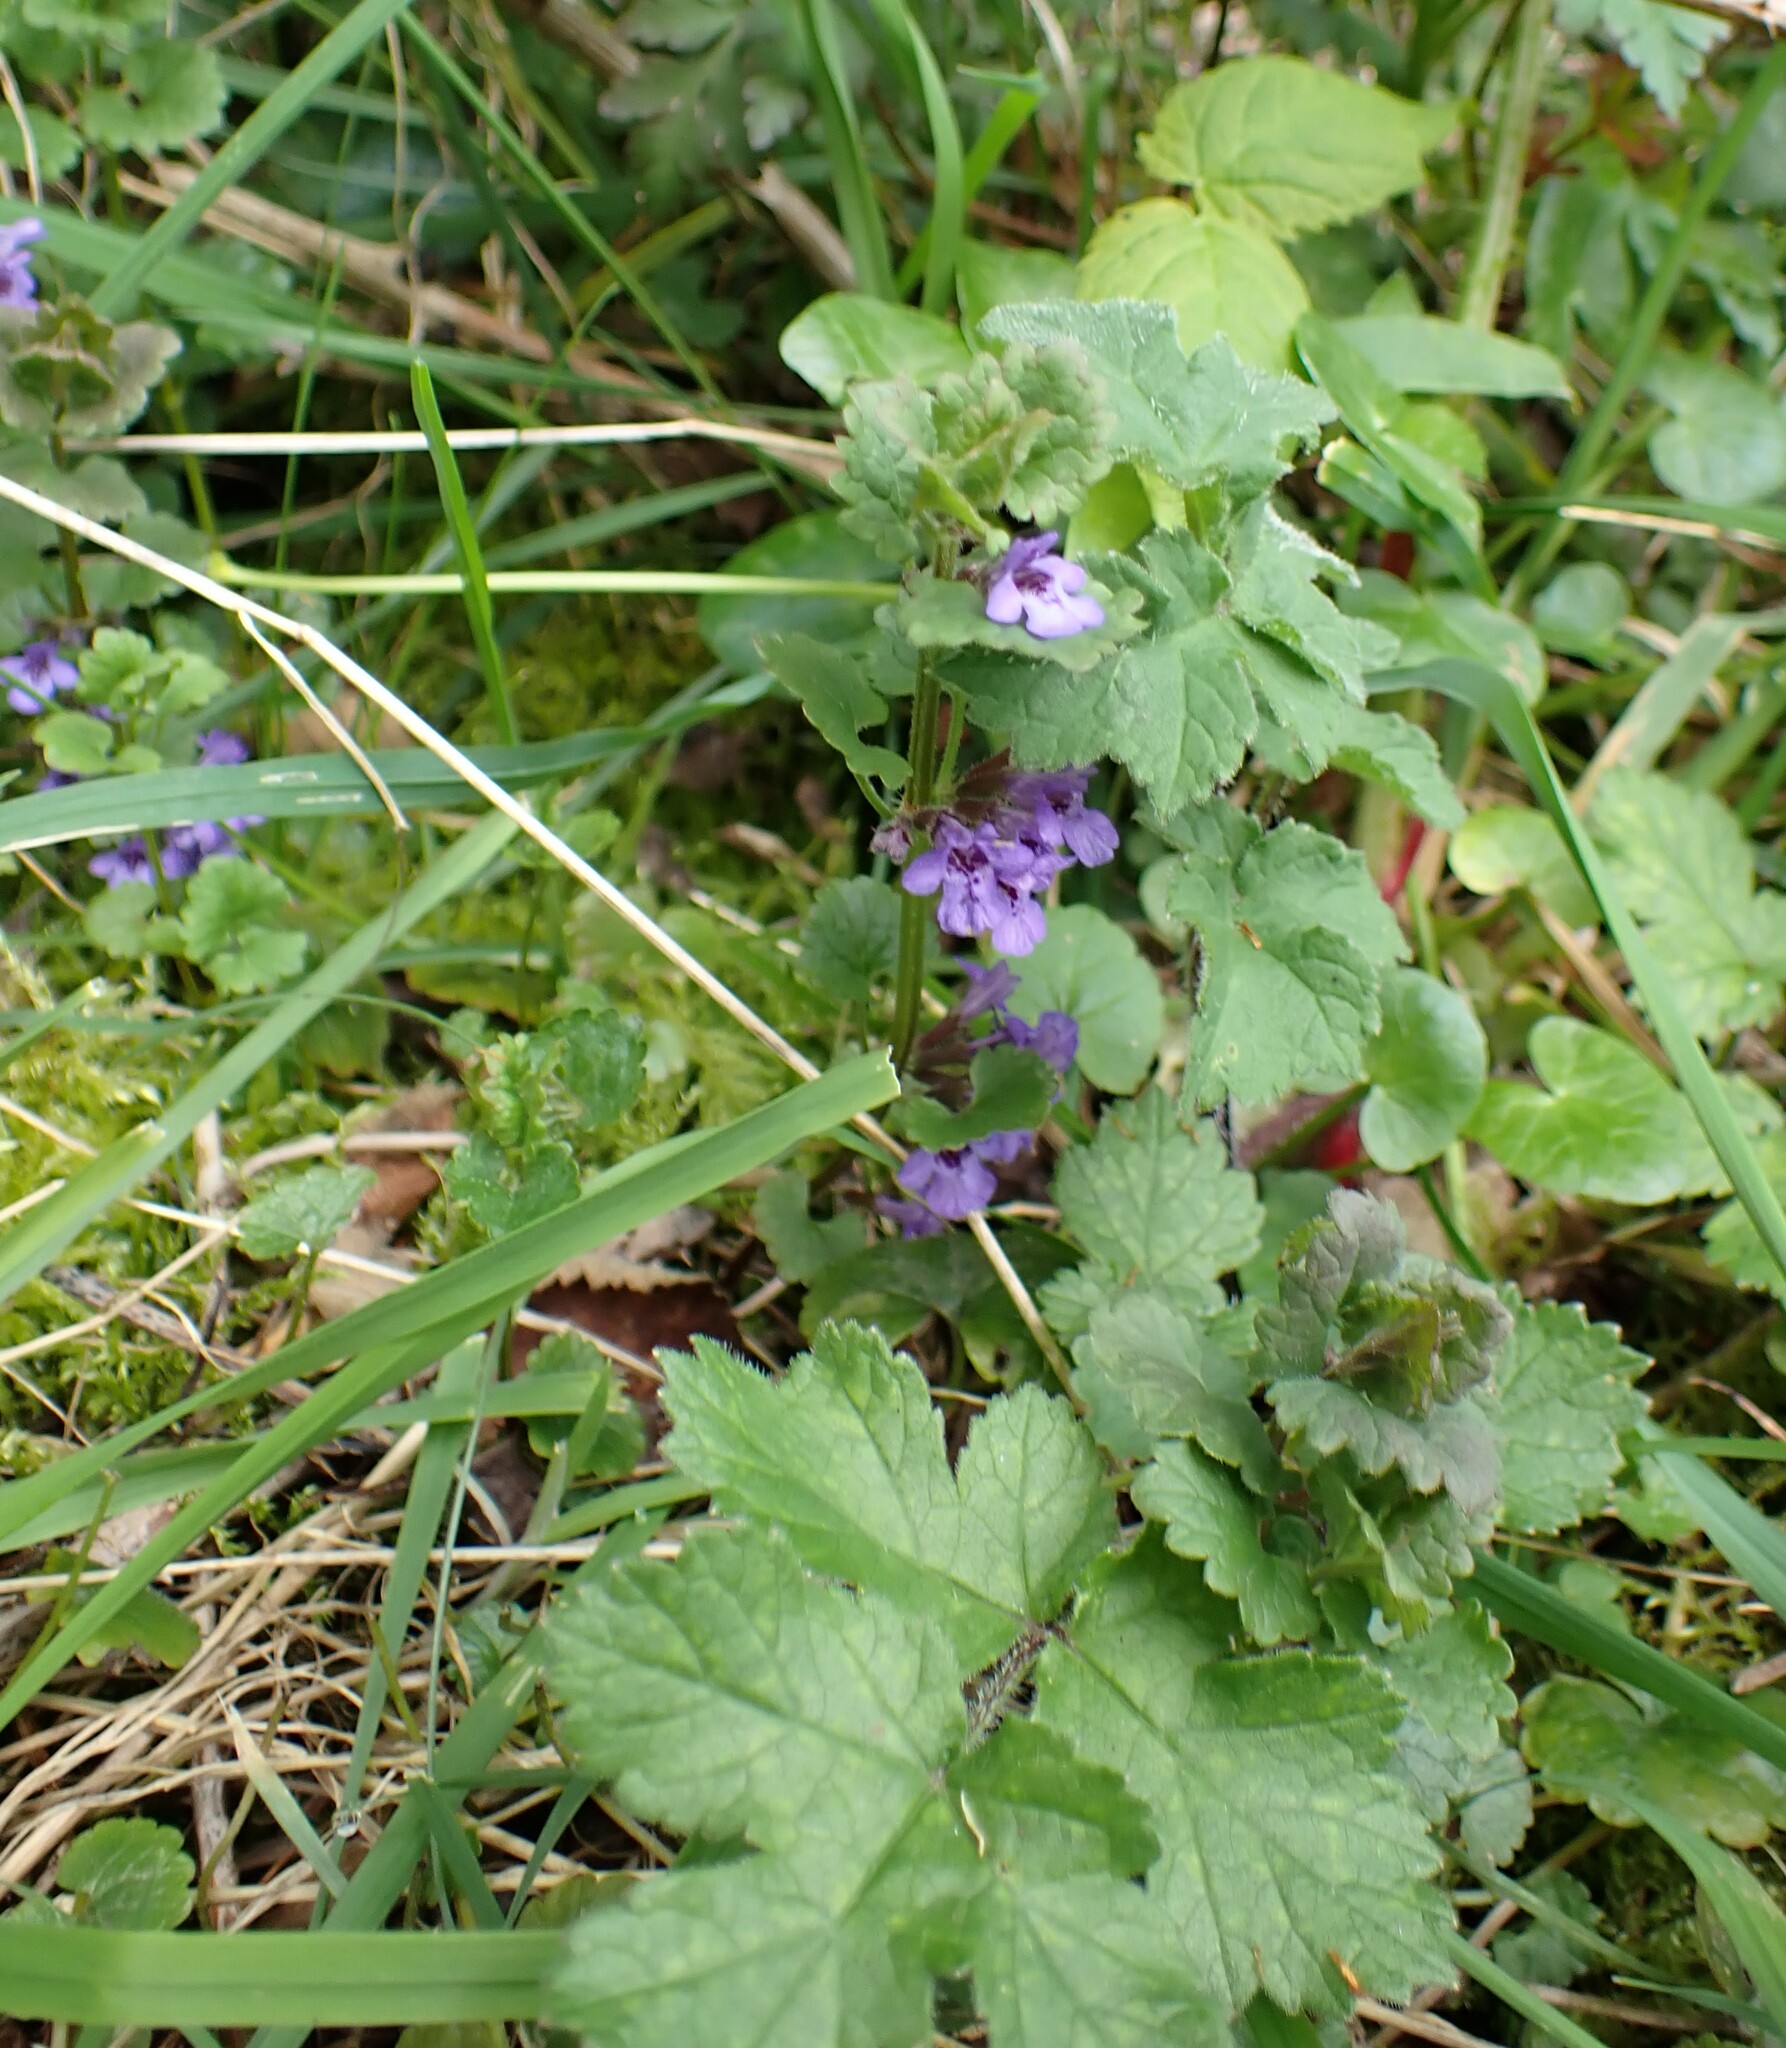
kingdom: Plantae
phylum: Tracheophyta
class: Magnoliopsida
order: Lamiales
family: Lamiaceae
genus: Glechoma
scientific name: Glechoma hederacea
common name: Ground ivy
